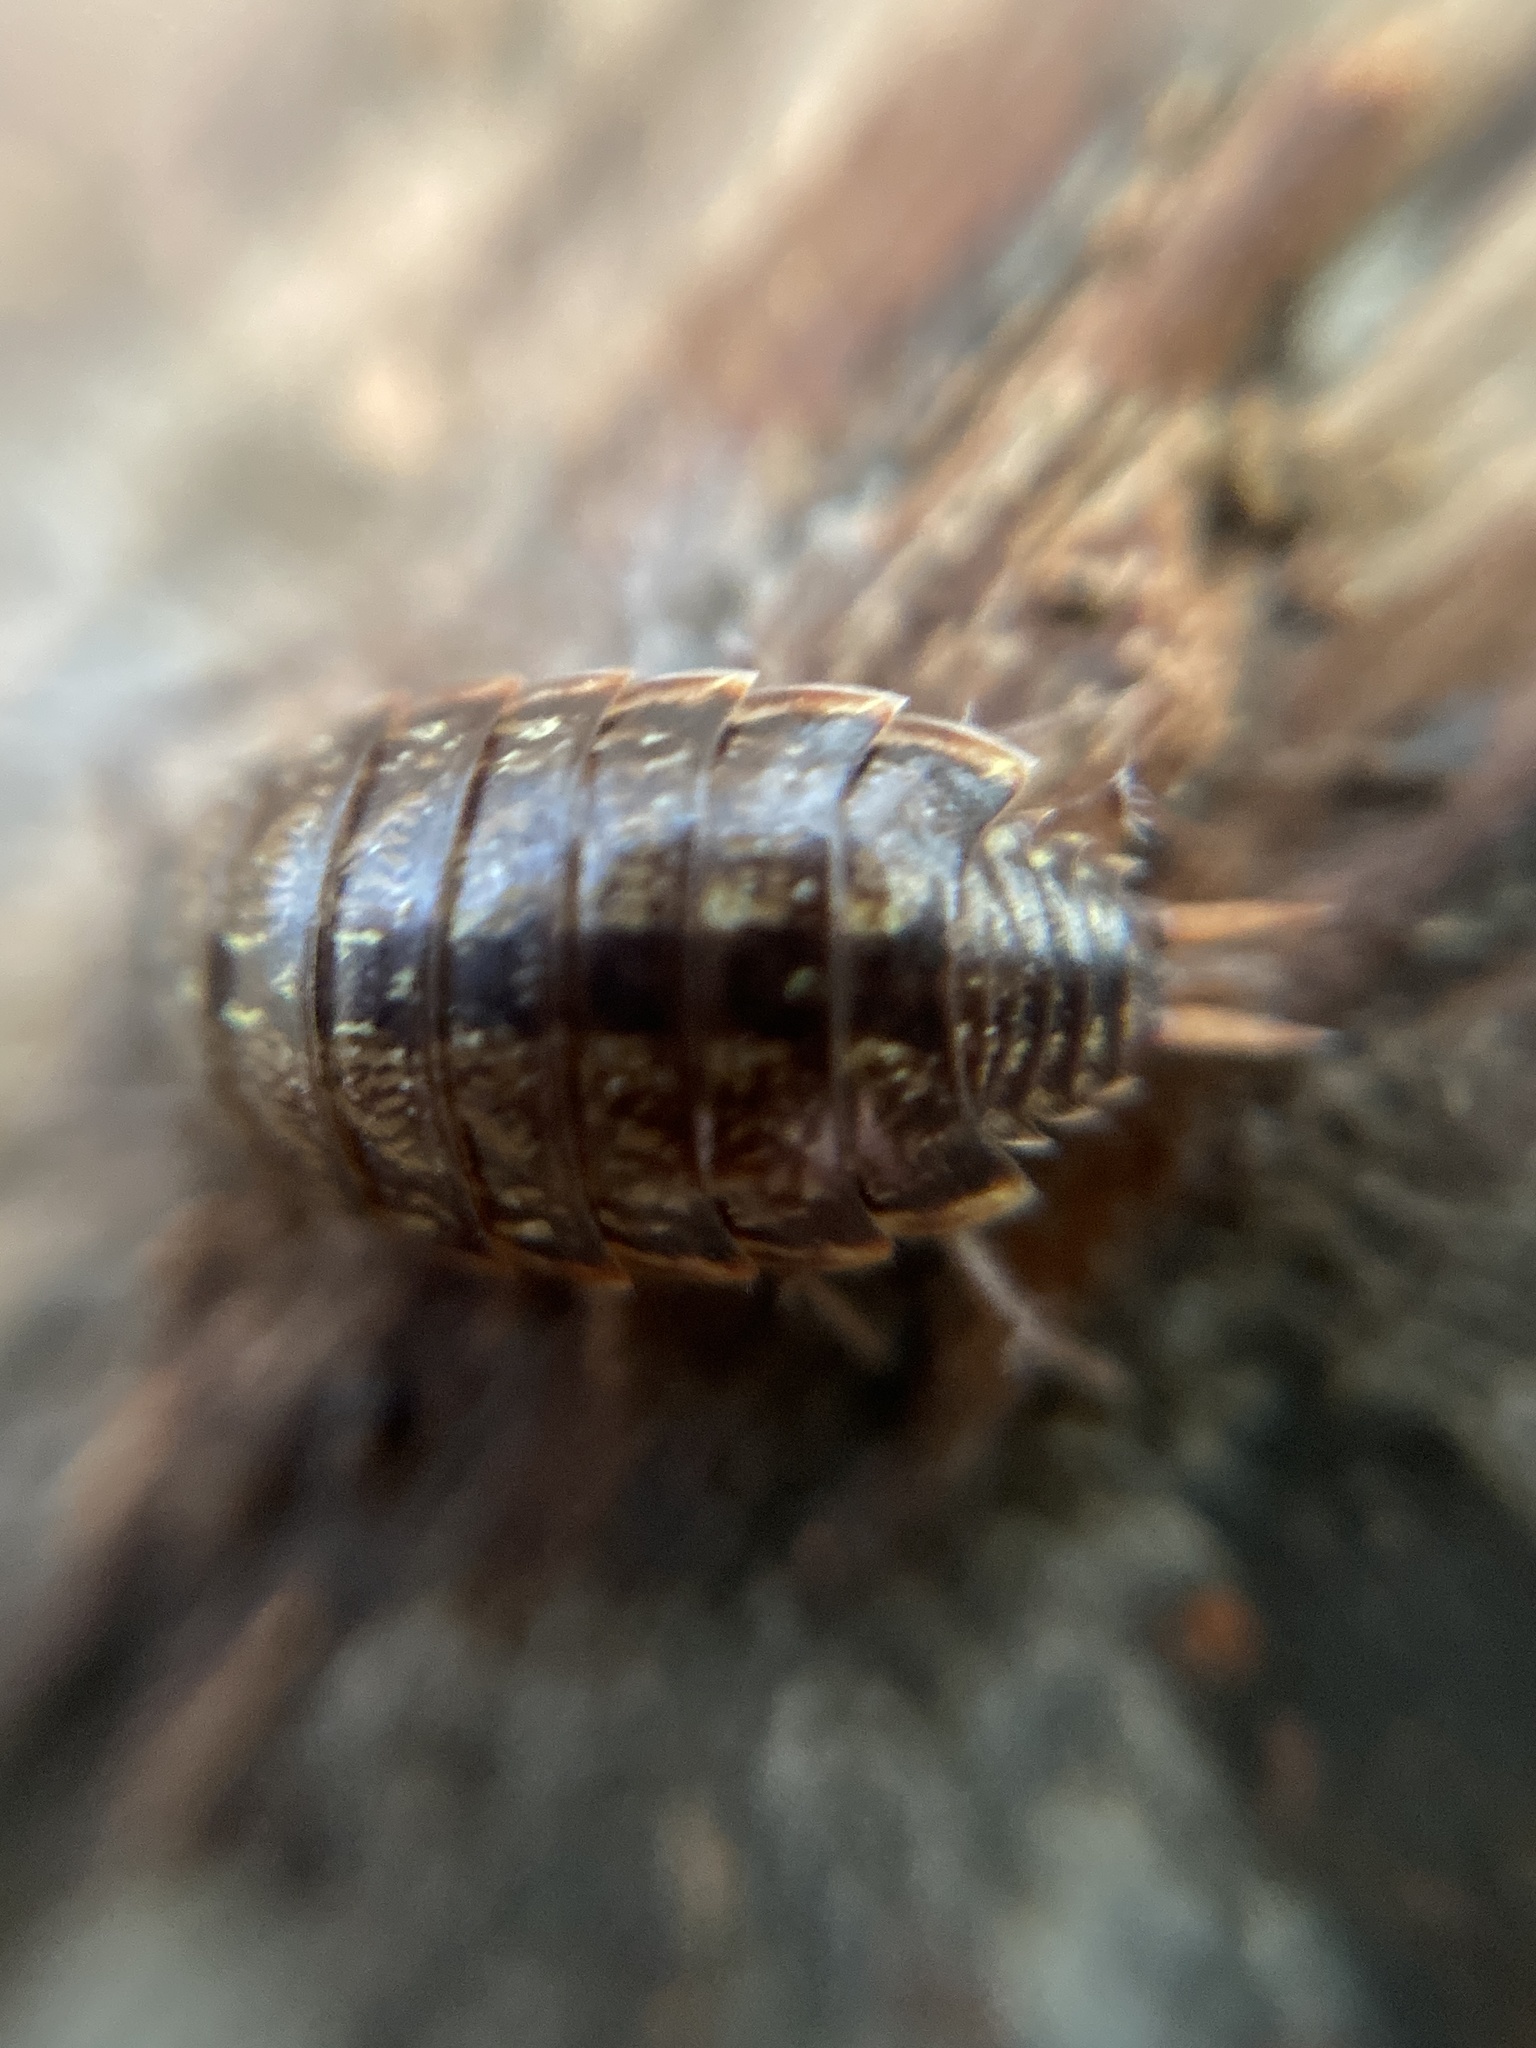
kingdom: Animalia
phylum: Arthropoda
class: Malacostraca
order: Isopoda
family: Philosciidae
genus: Philoscia
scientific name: Philoscia muscorum
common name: Common striped woodlouse
